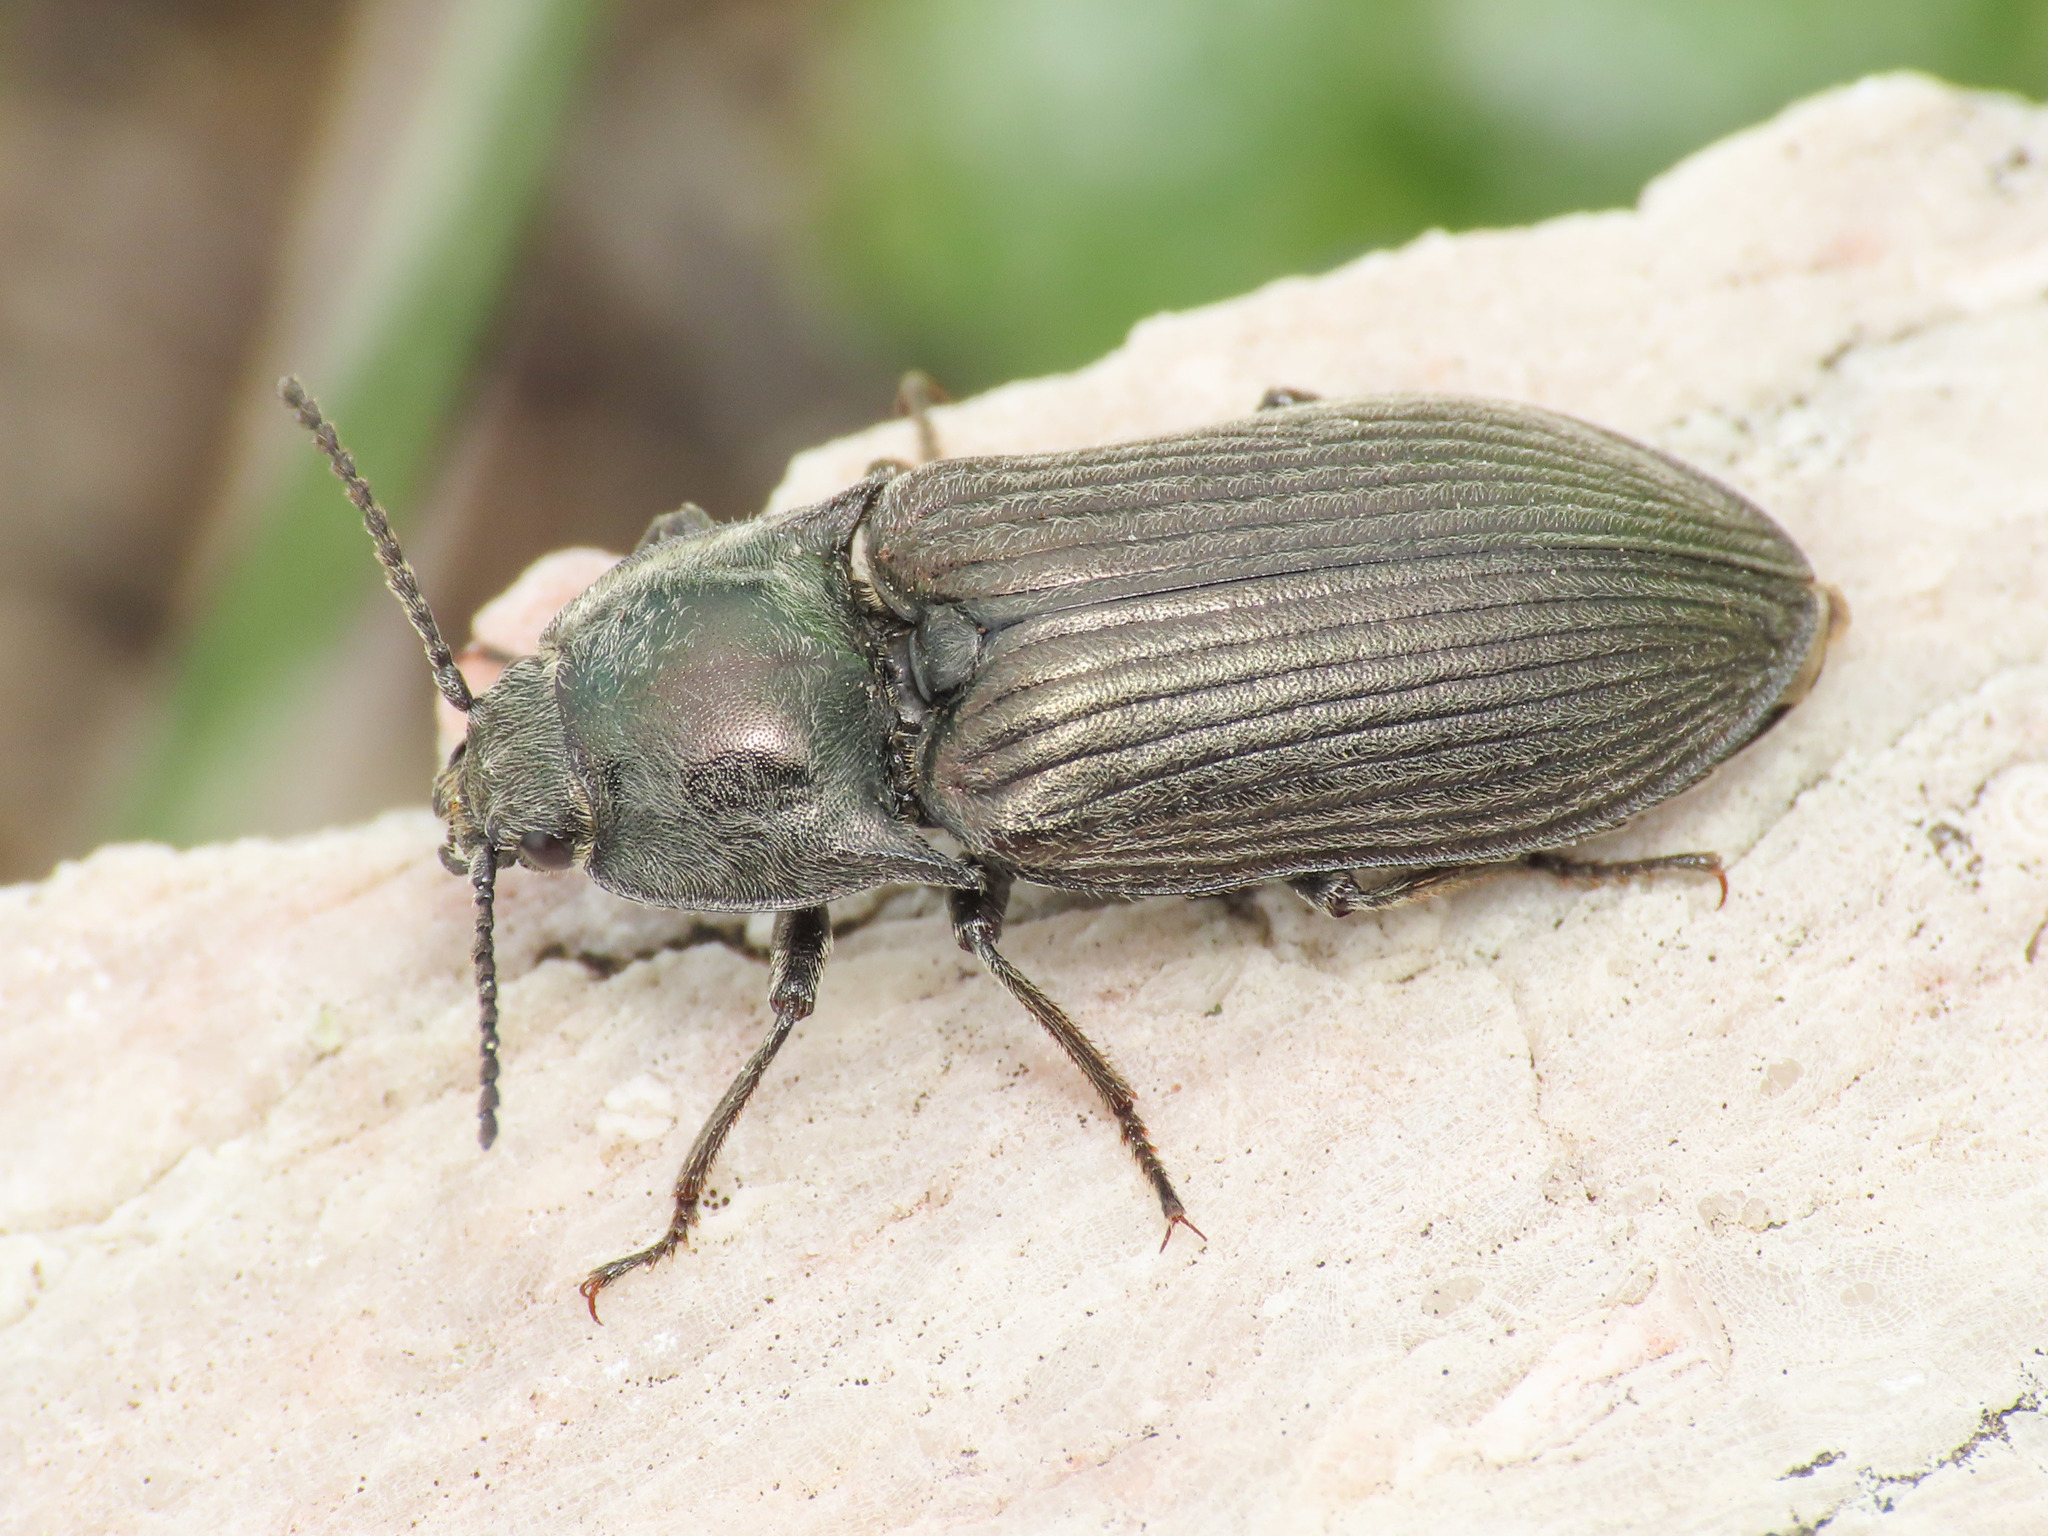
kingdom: Animalia
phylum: Arthropoda
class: Insecta
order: Coleoptera
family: Elateridae
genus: Selatosomus
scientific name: Selatosomus latus
